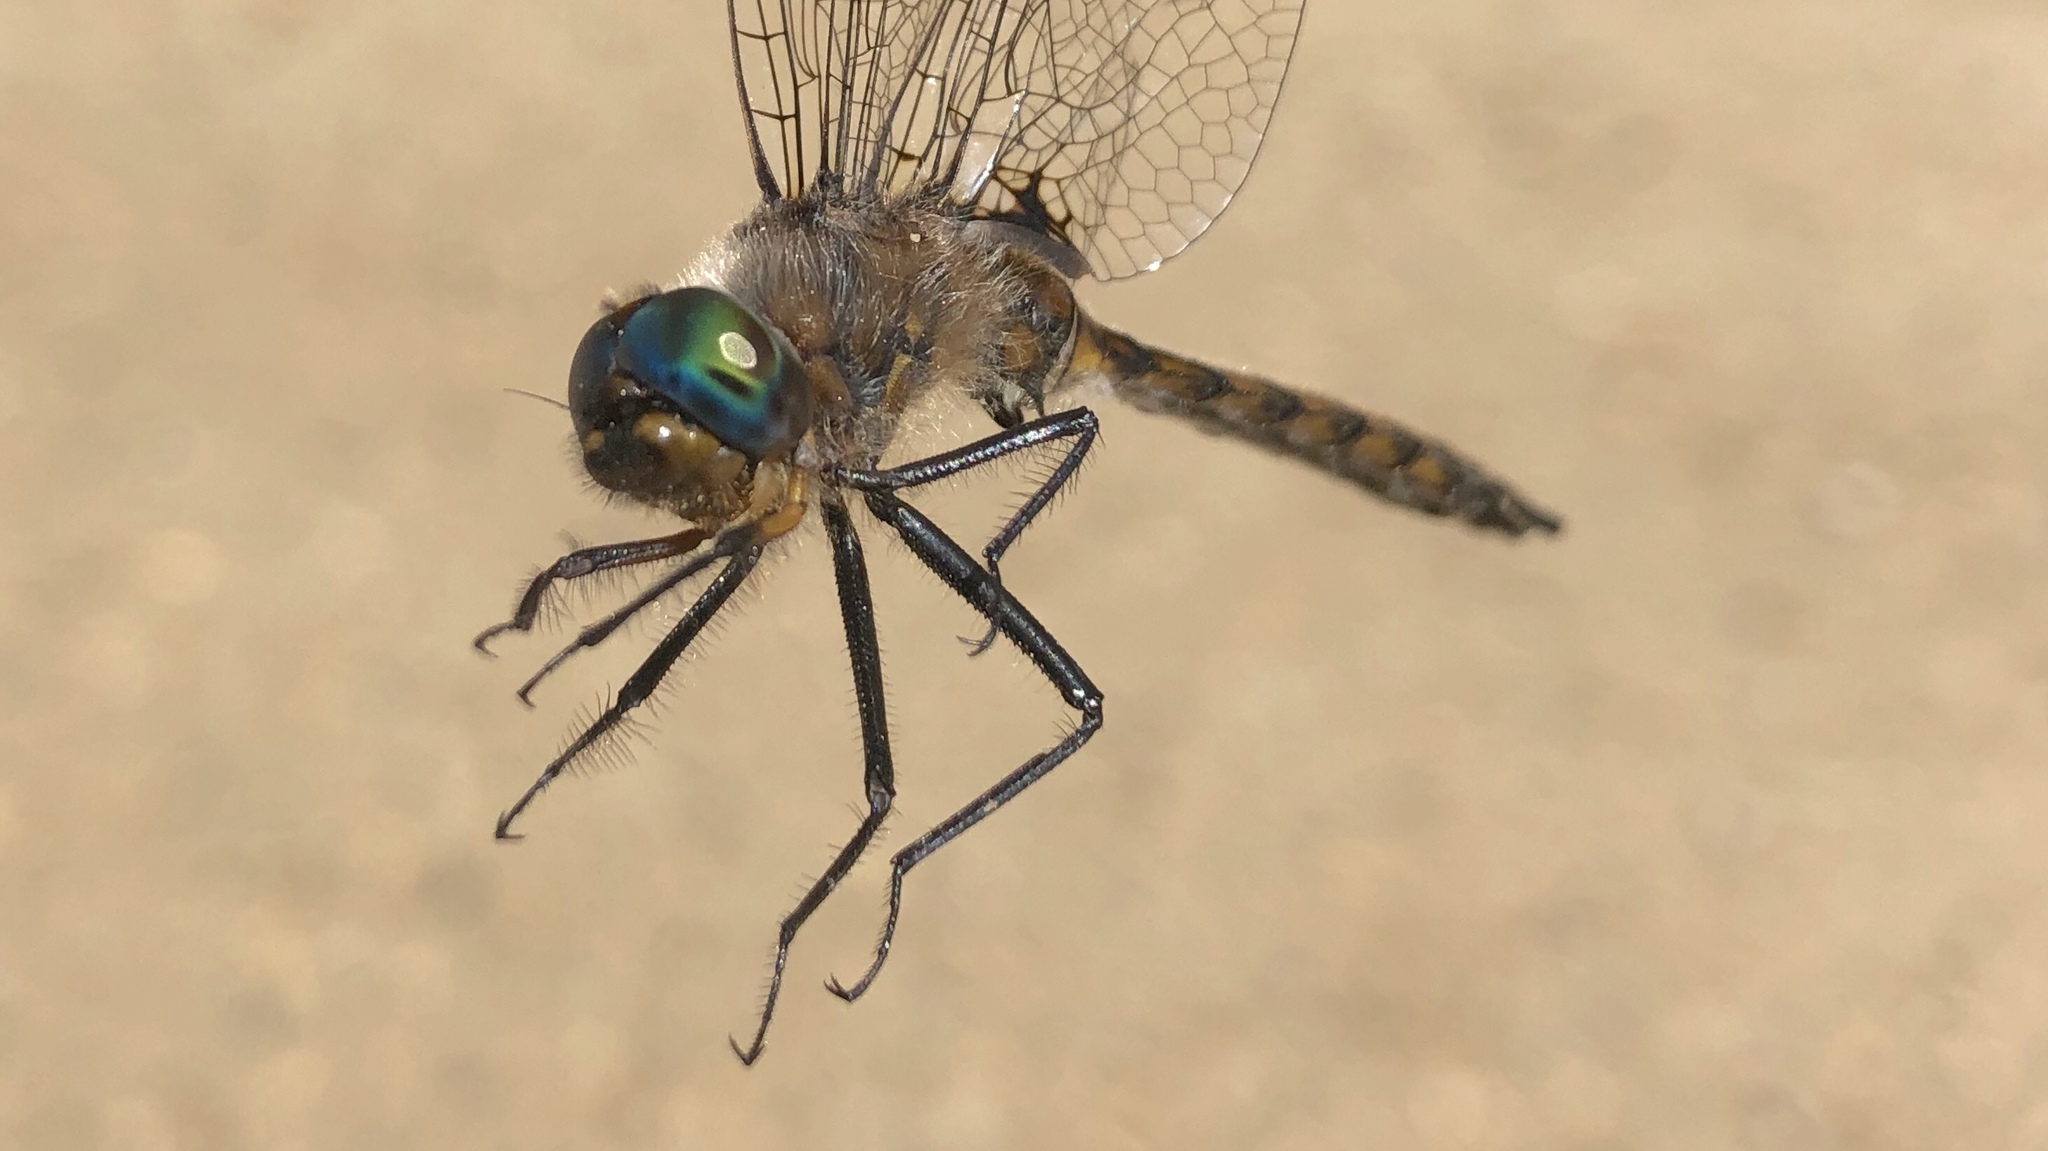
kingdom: Animalia
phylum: Arthropoda
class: Insecta
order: Odonata
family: Corduliidae
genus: Epitheca
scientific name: Epitheca spinigera
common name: Spiny baskettail
